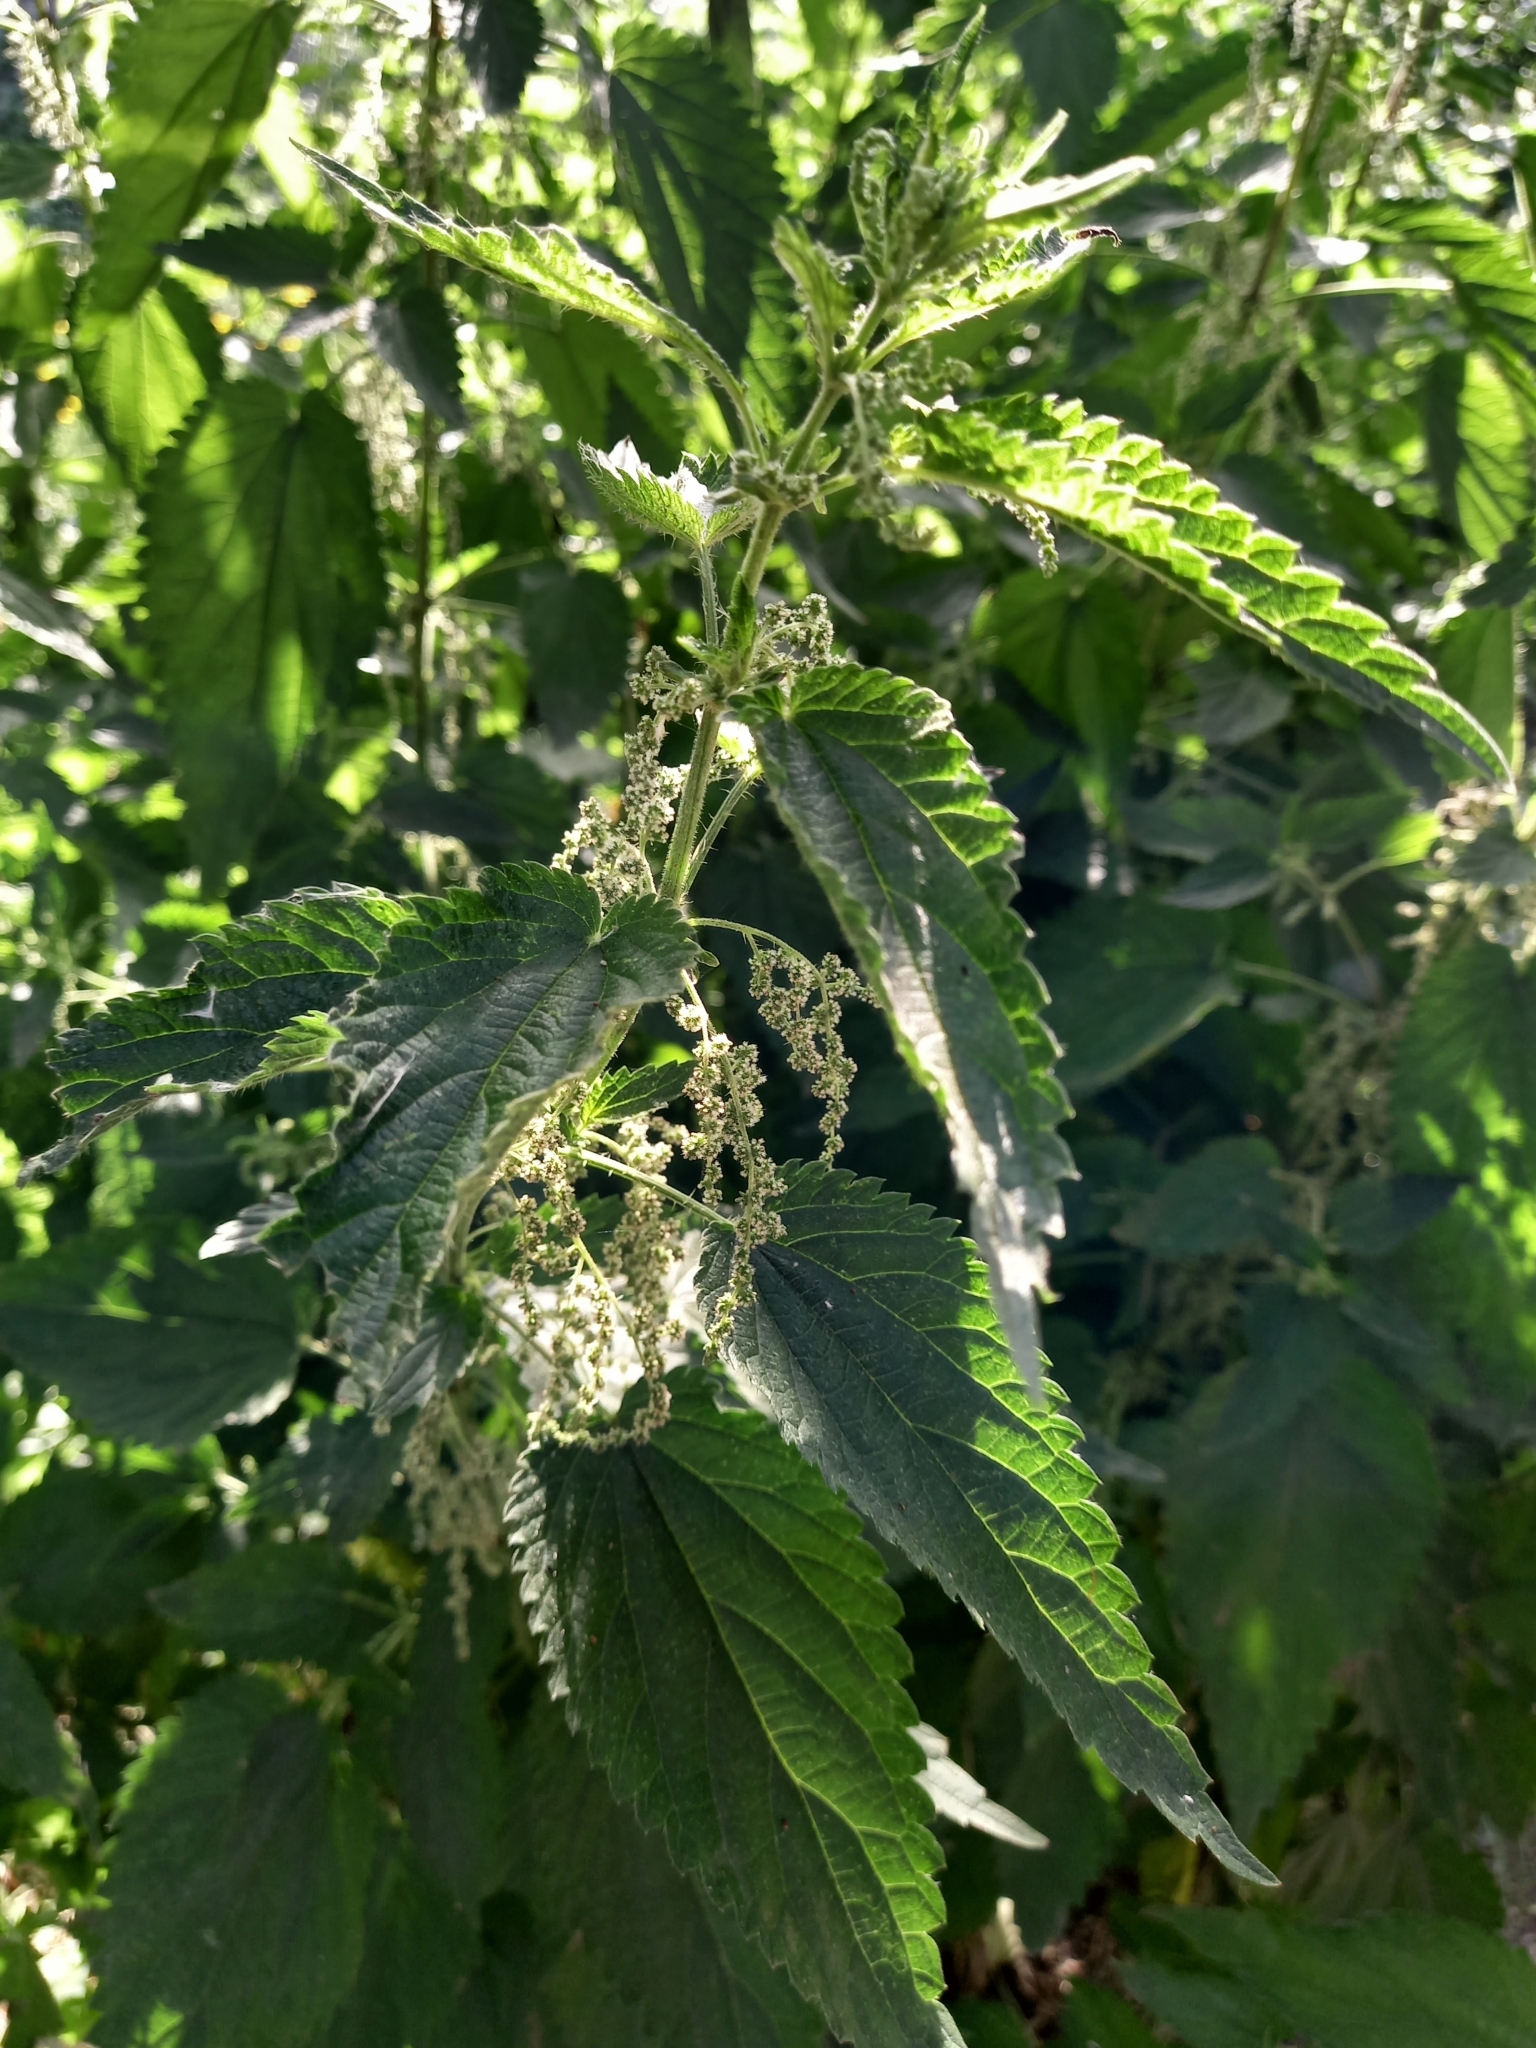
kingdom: Plantae
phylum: Tracheophyta
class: Magnoliopsida
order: Rosales
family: Urticaceae
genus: Urtica
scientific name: Urtica dioica
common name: Common nettle
